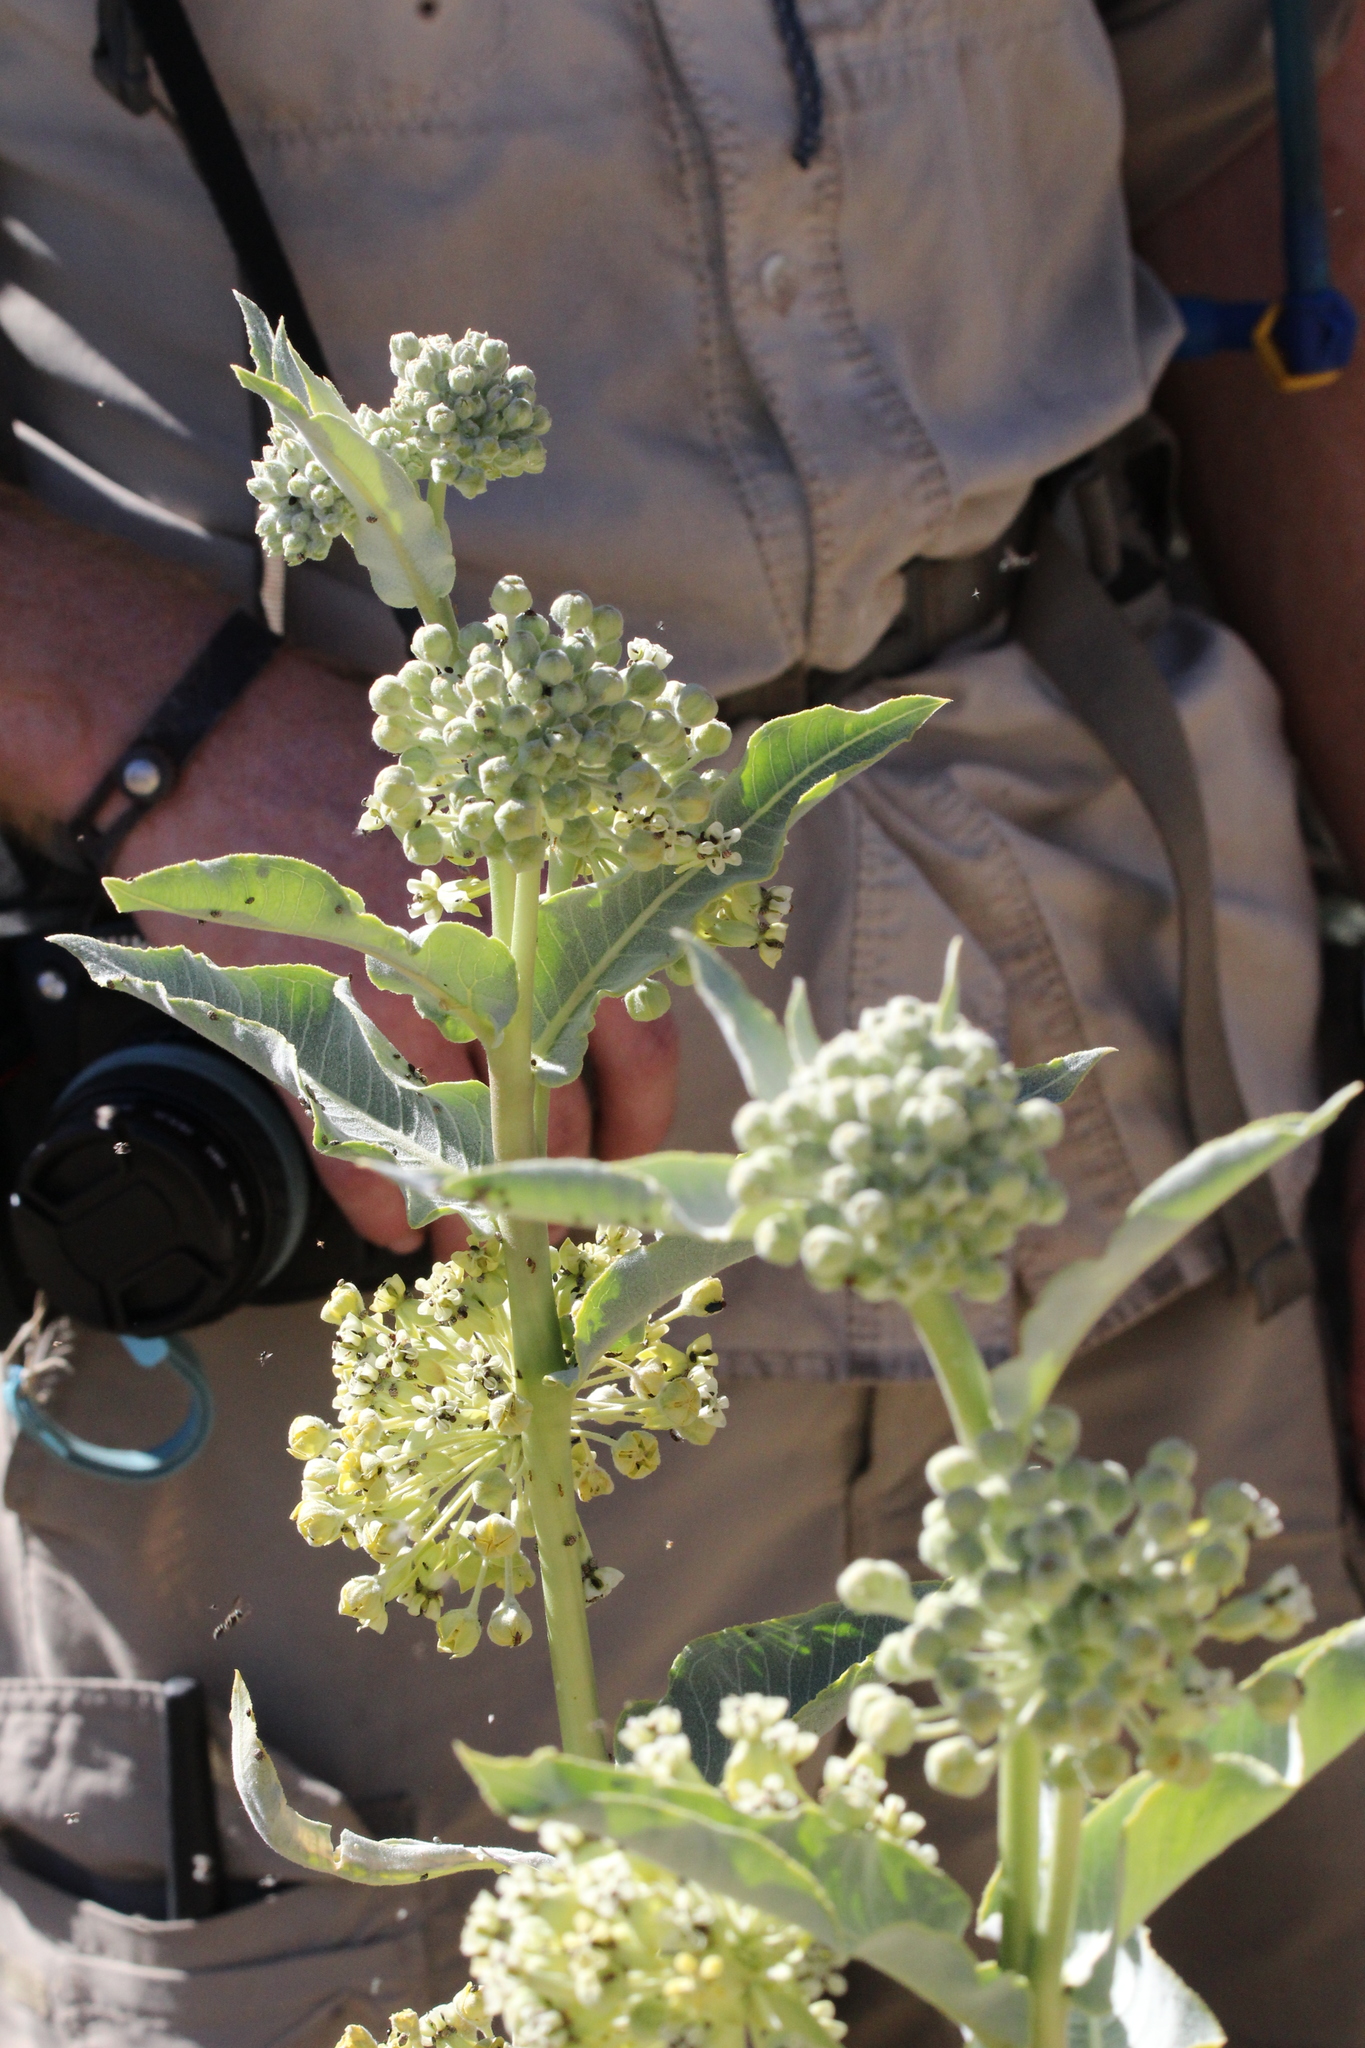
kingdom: Plantae
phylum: Tracheophyta
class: Magnoliopsida
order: Gentianales
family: Apocynaceae
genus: Asclepias
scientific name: Asclepias erosa
